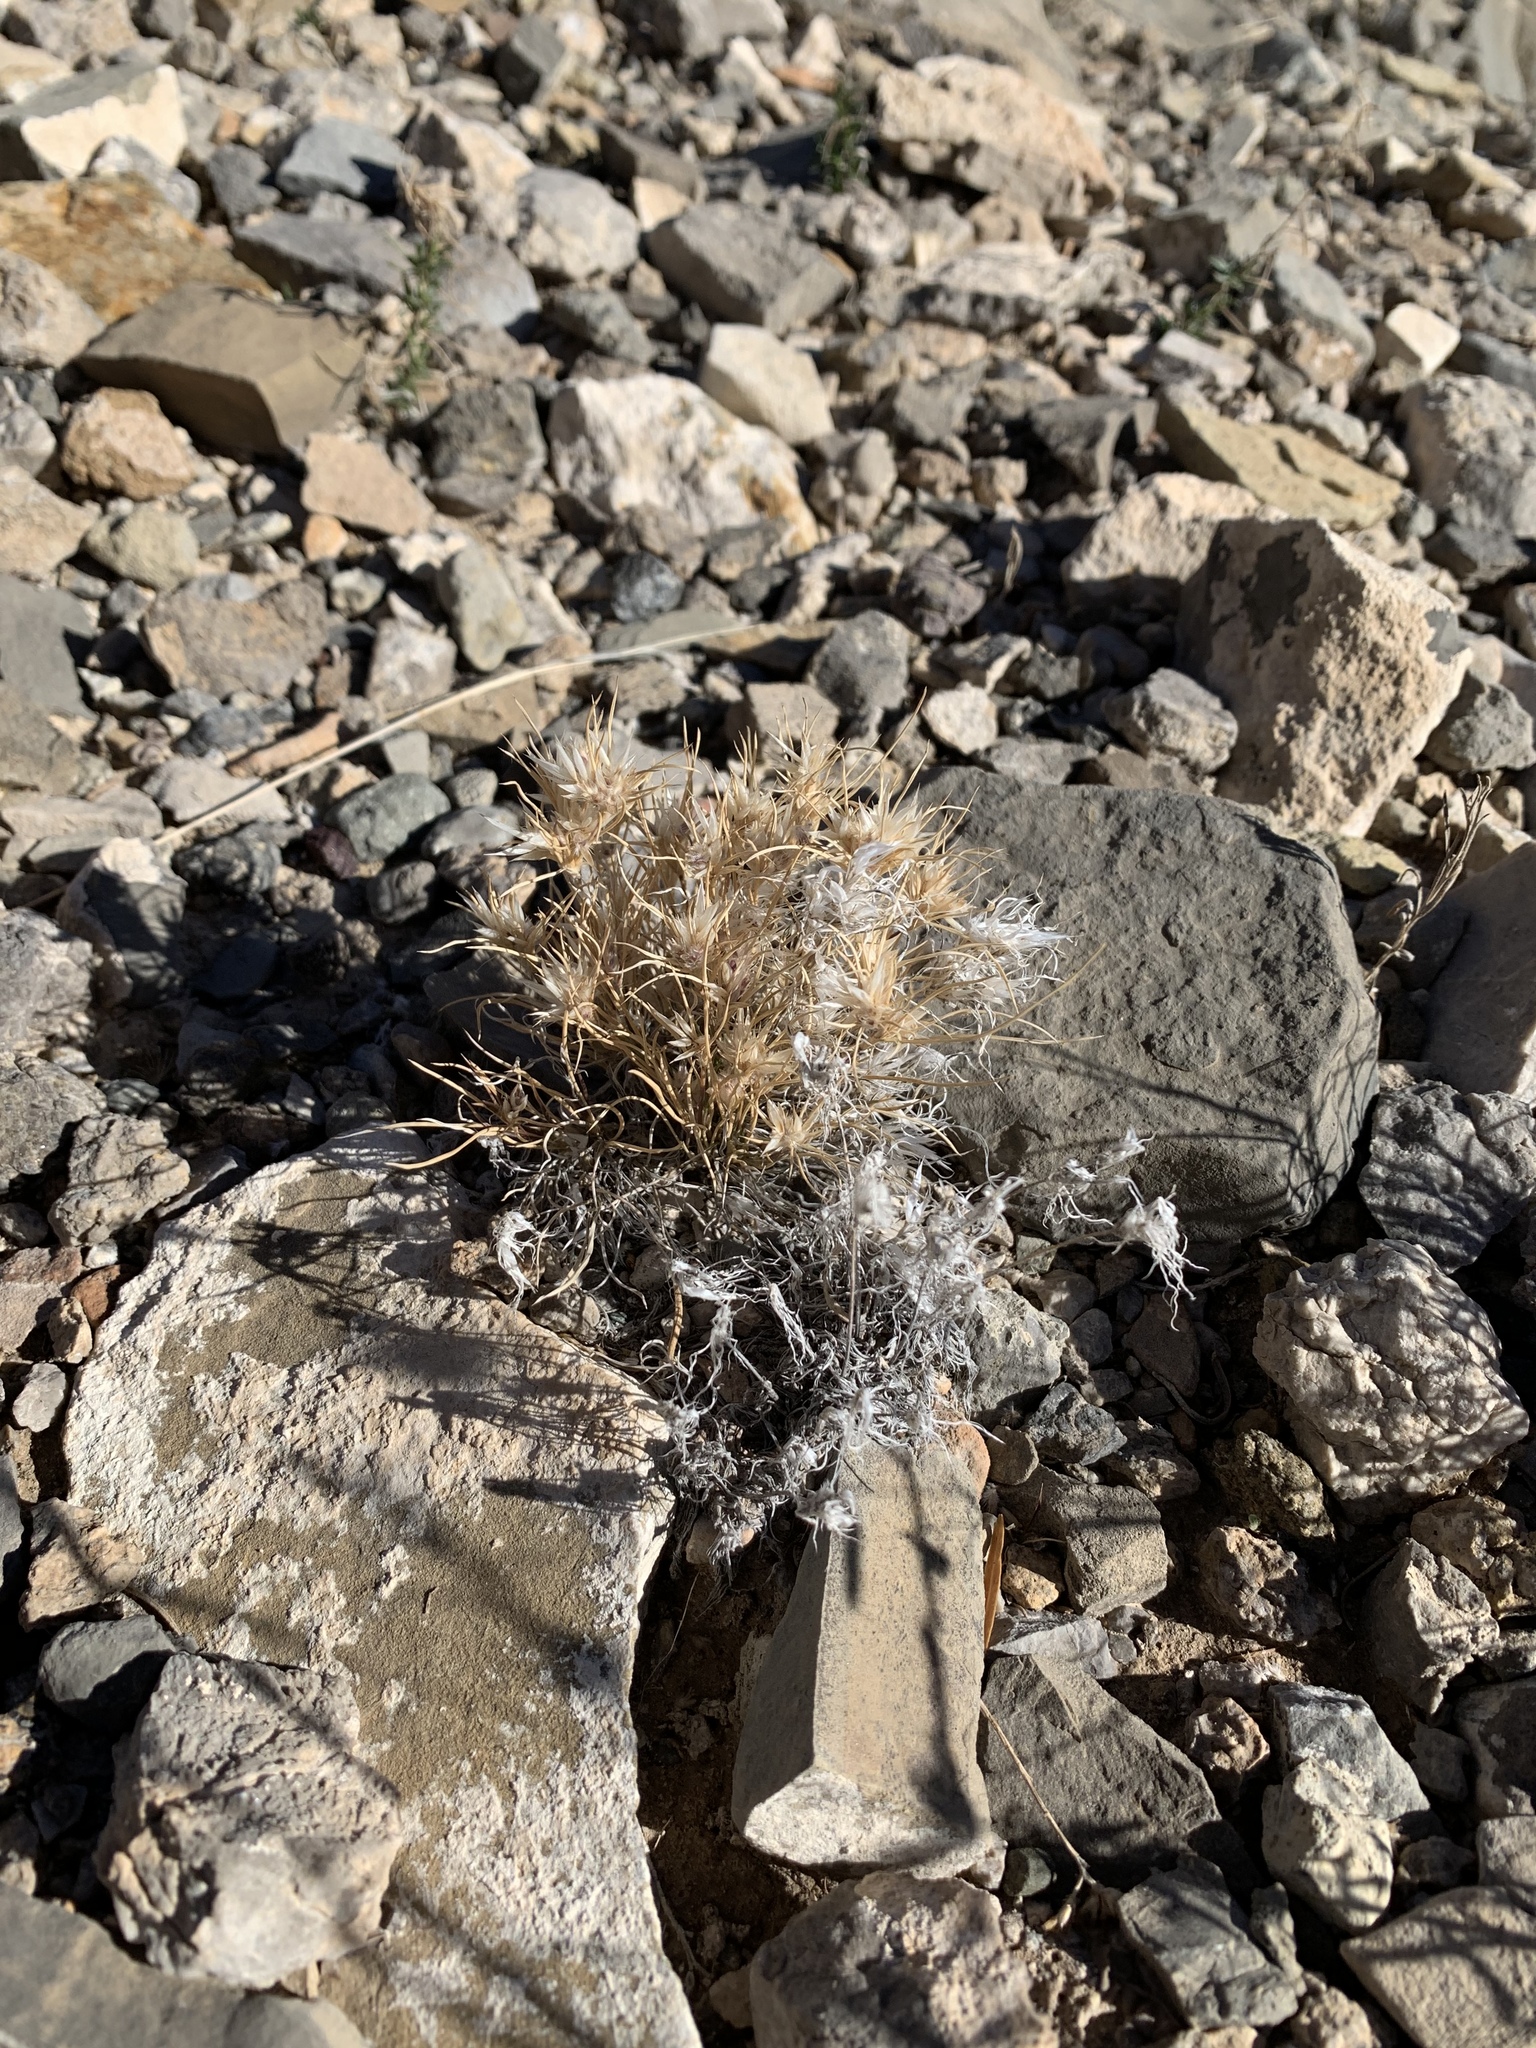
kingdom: Plantae
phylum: Tracheophyta
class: Liliopsida
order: Poales
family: Poaceae
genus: Dasyochloa
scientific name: Dasyochloa pulchella
